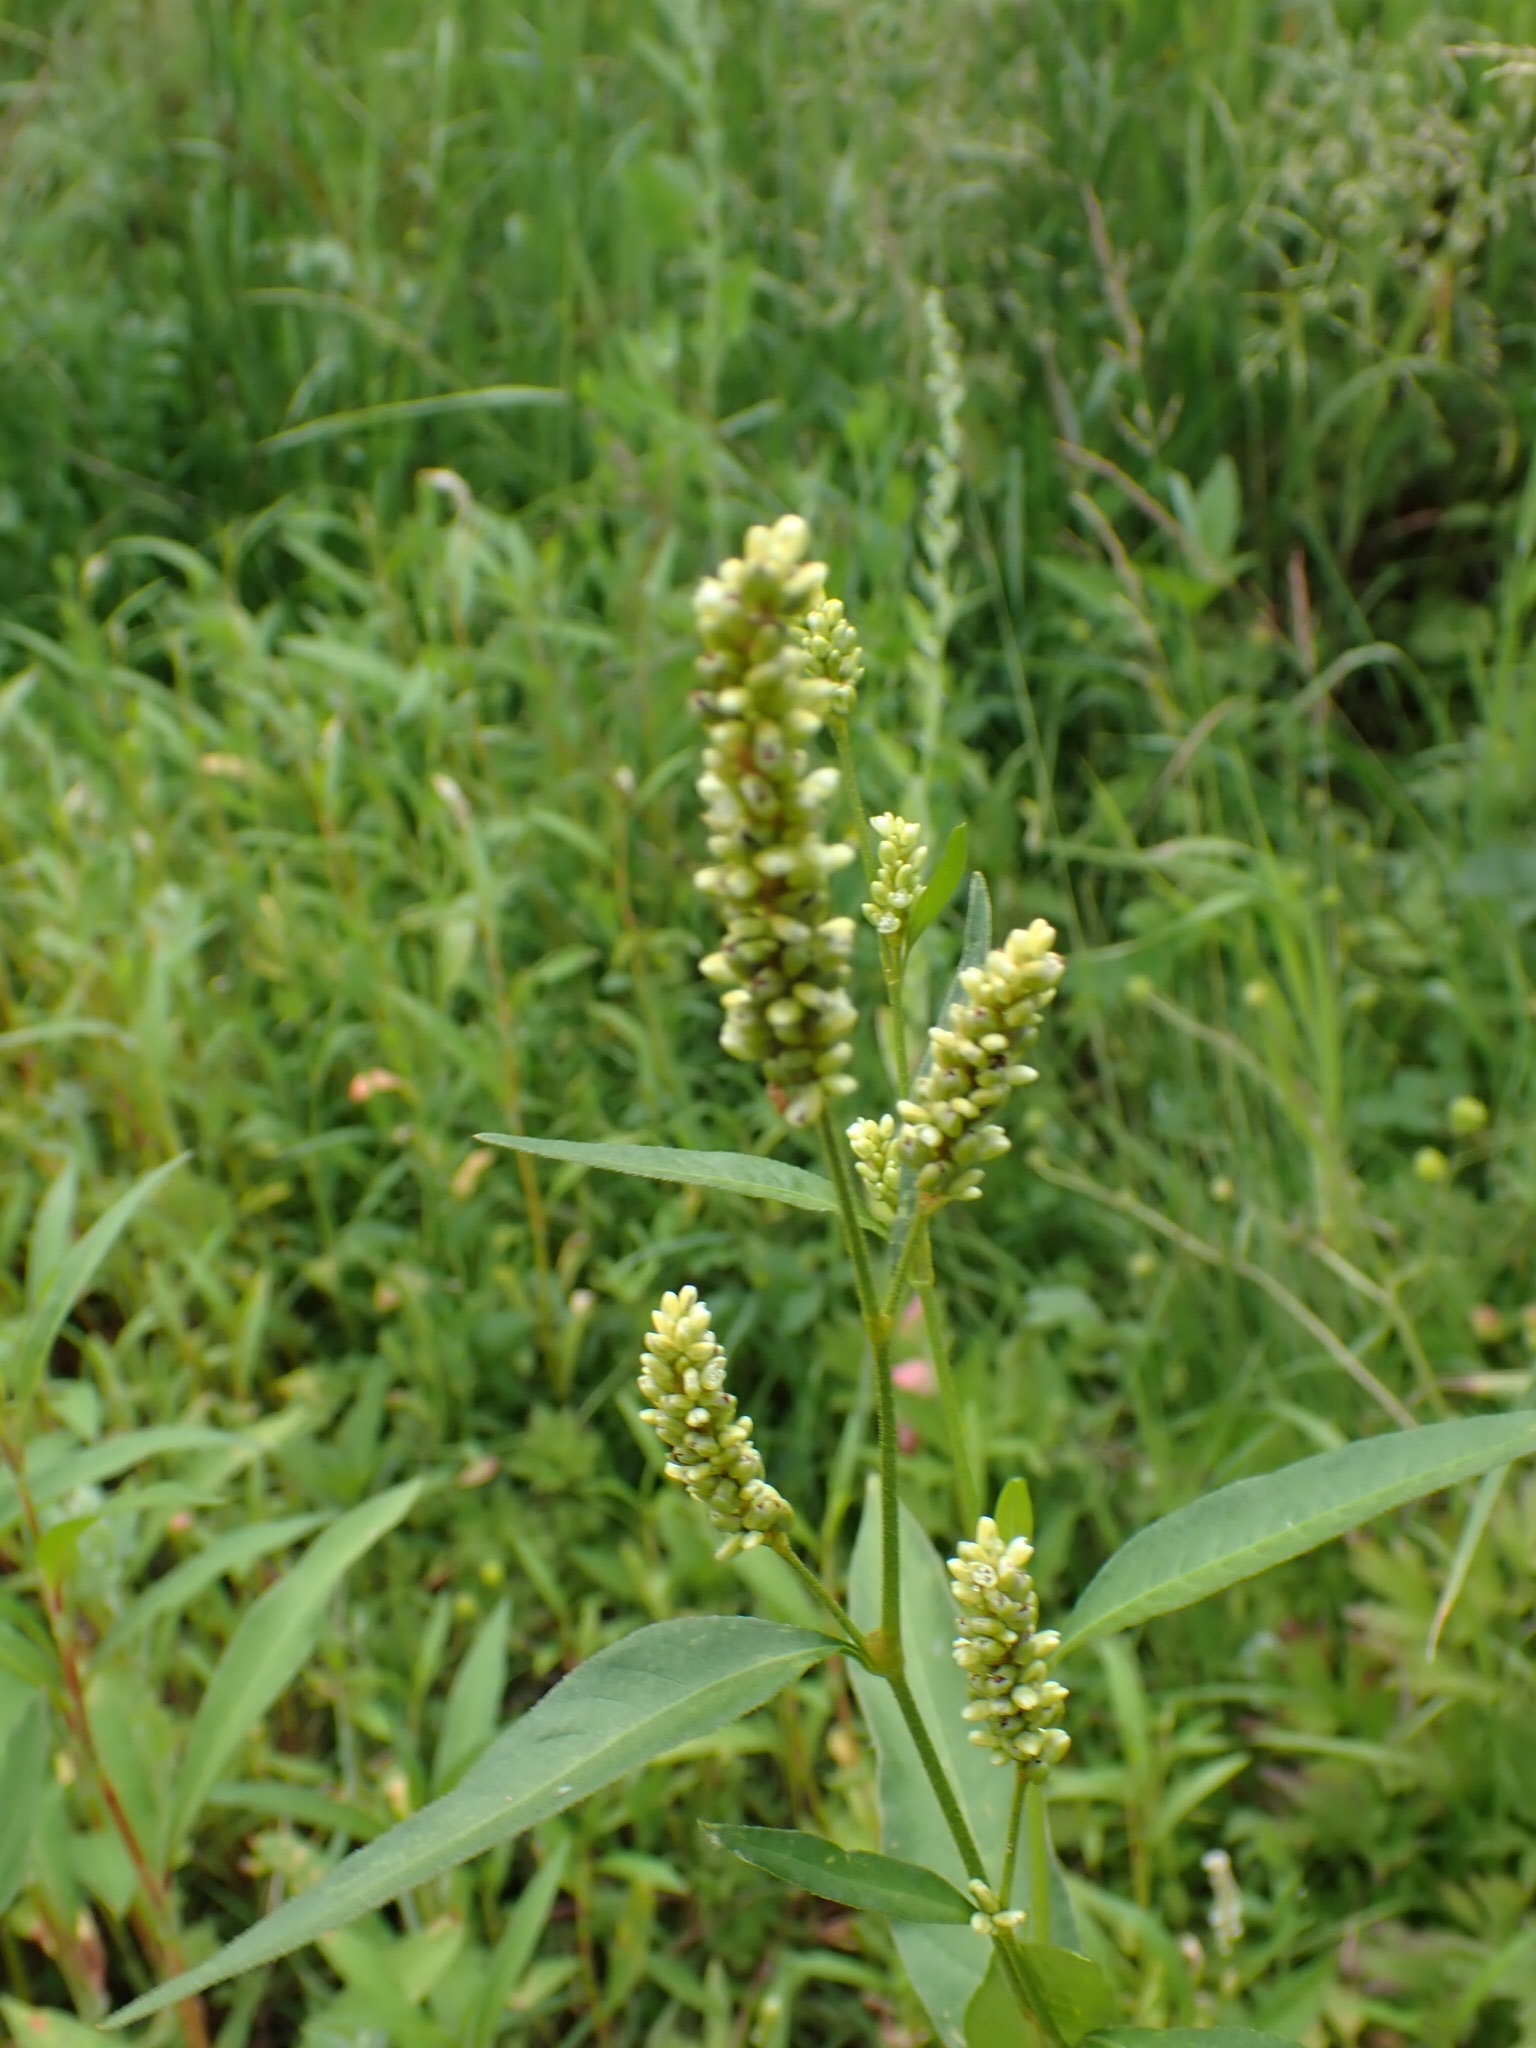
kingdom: Plantae
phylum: Tracheophyta
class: Magnoliopsida
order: Caryophyllales
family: Polygonaceae
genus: Persicaria
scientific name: Persicaria lapathifolia
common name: Curlytop knotweed
